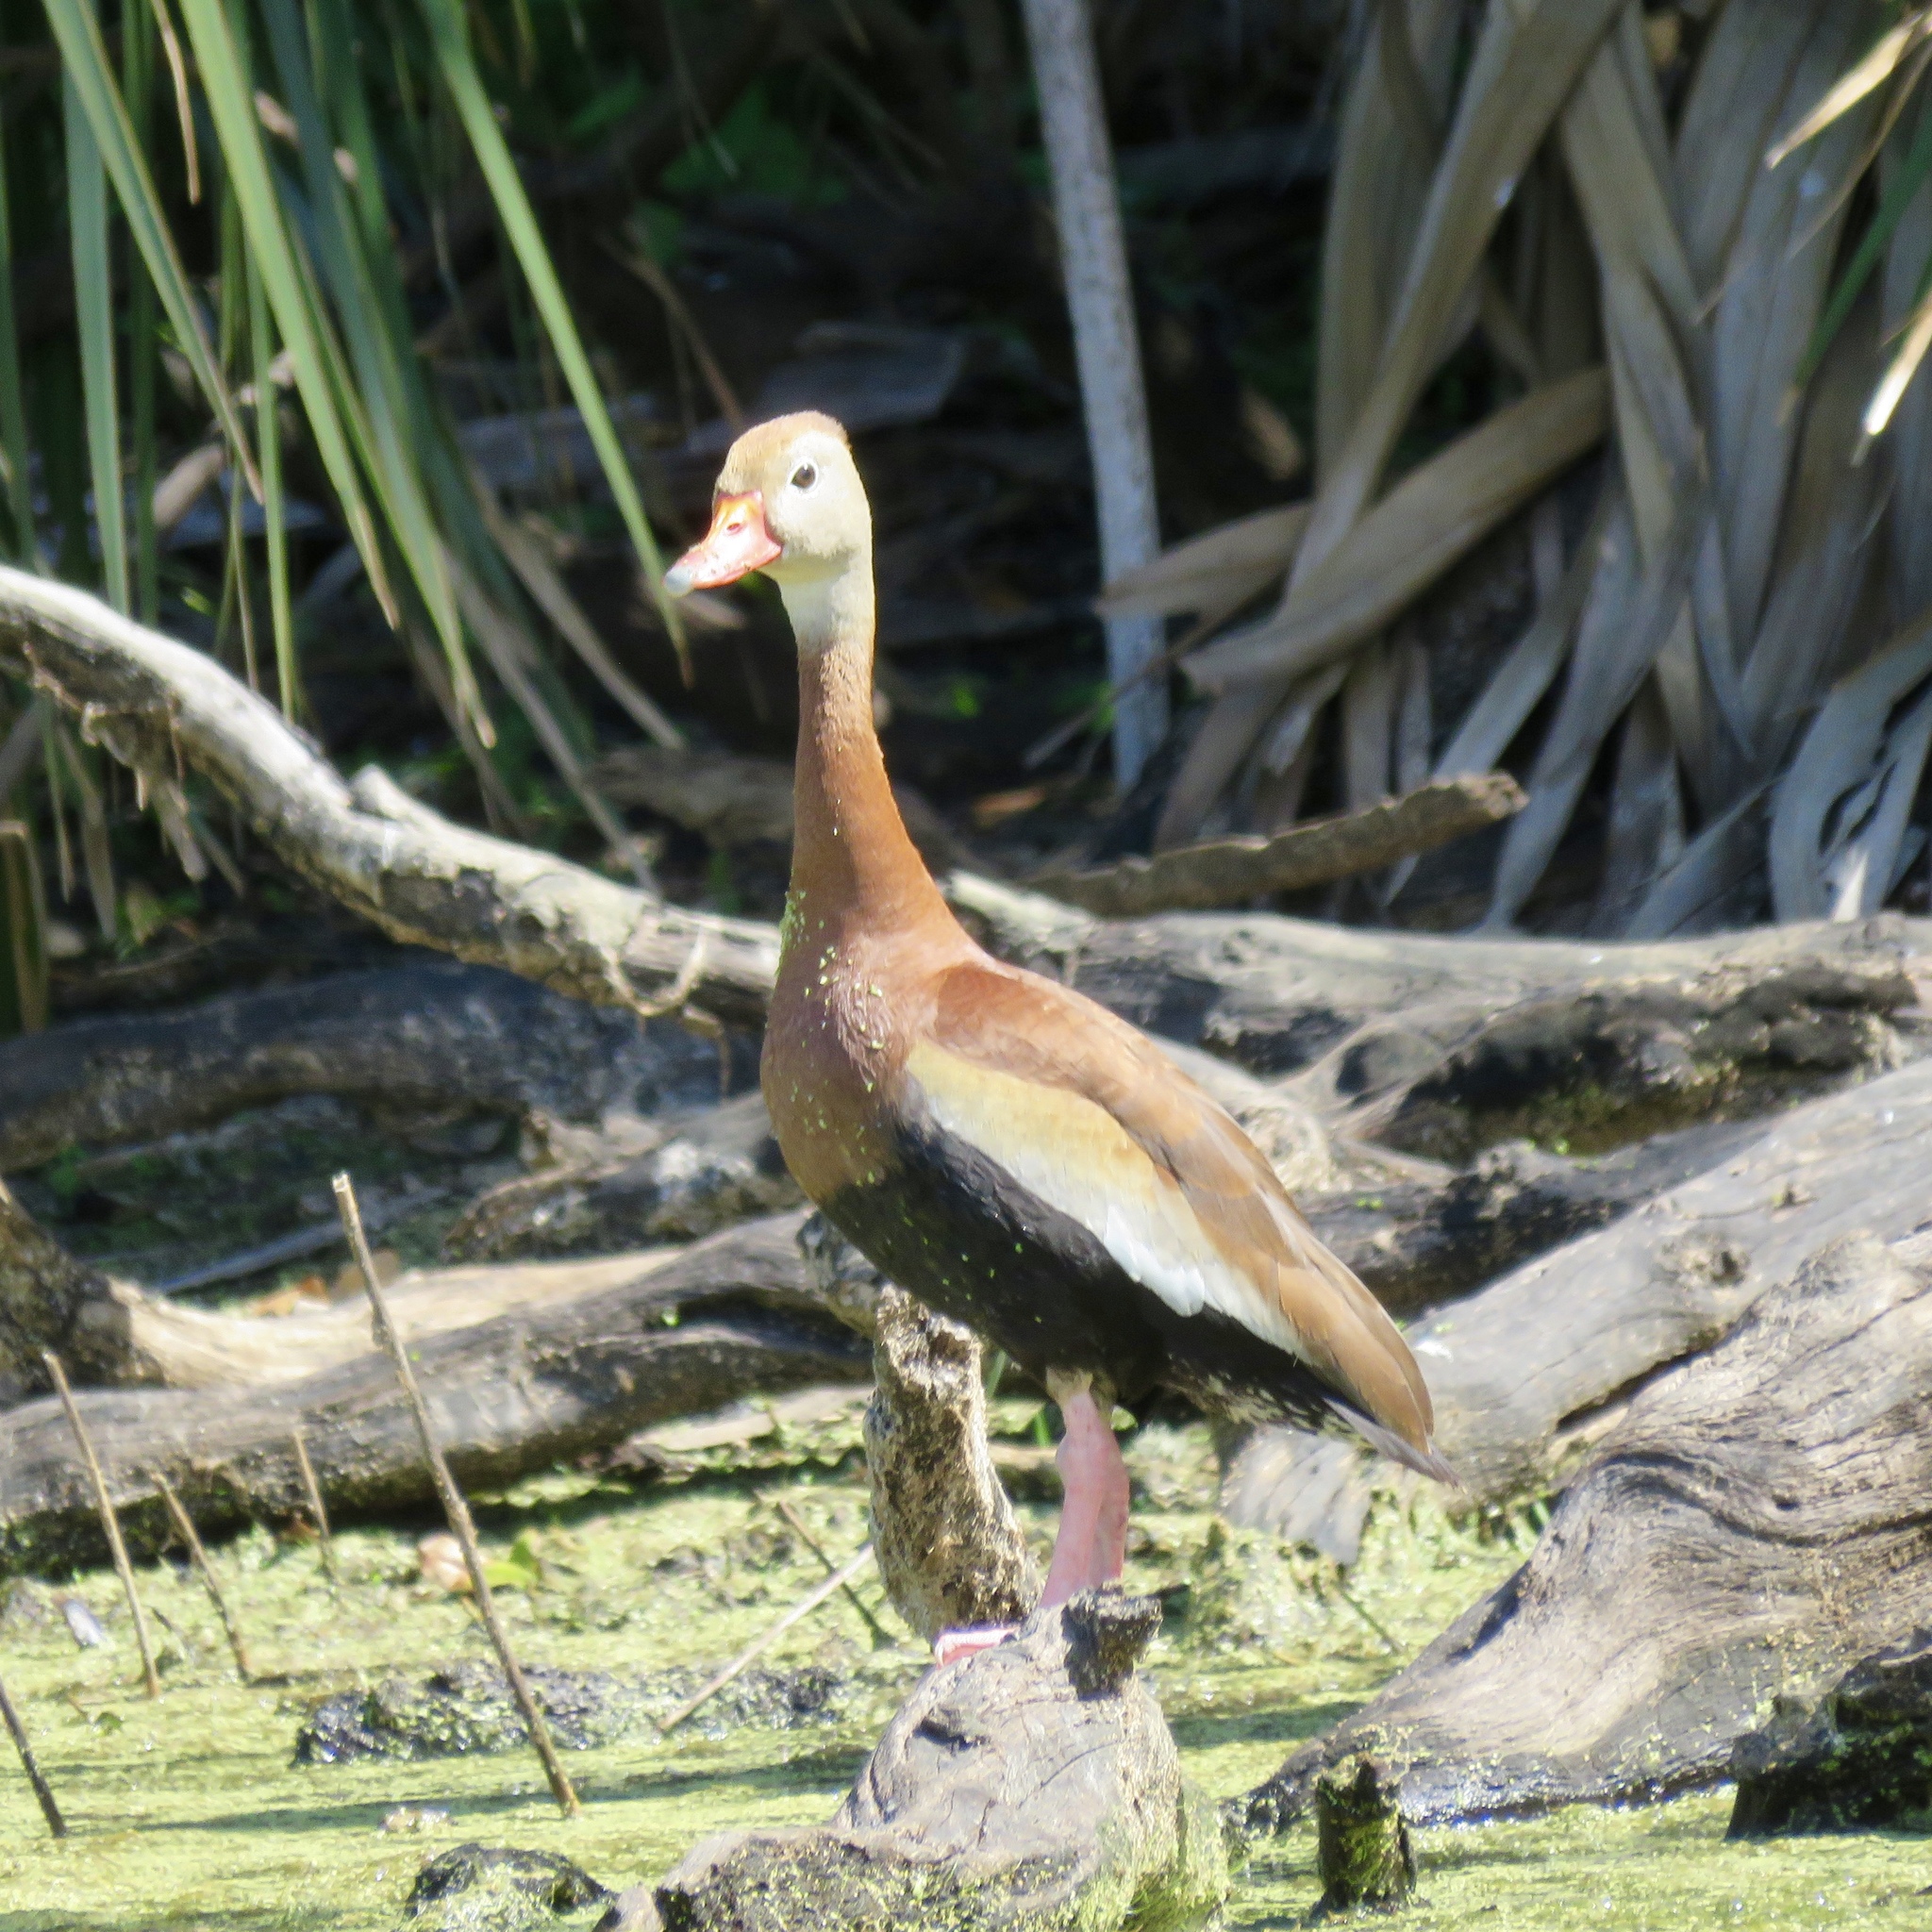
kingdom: Animalia
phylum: Chordata
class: Aves
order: Anseriformes
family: Anatidae
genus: Dendrocygna
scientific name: Dendrocygna autumnalis
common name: Black-bellied whistling duck
